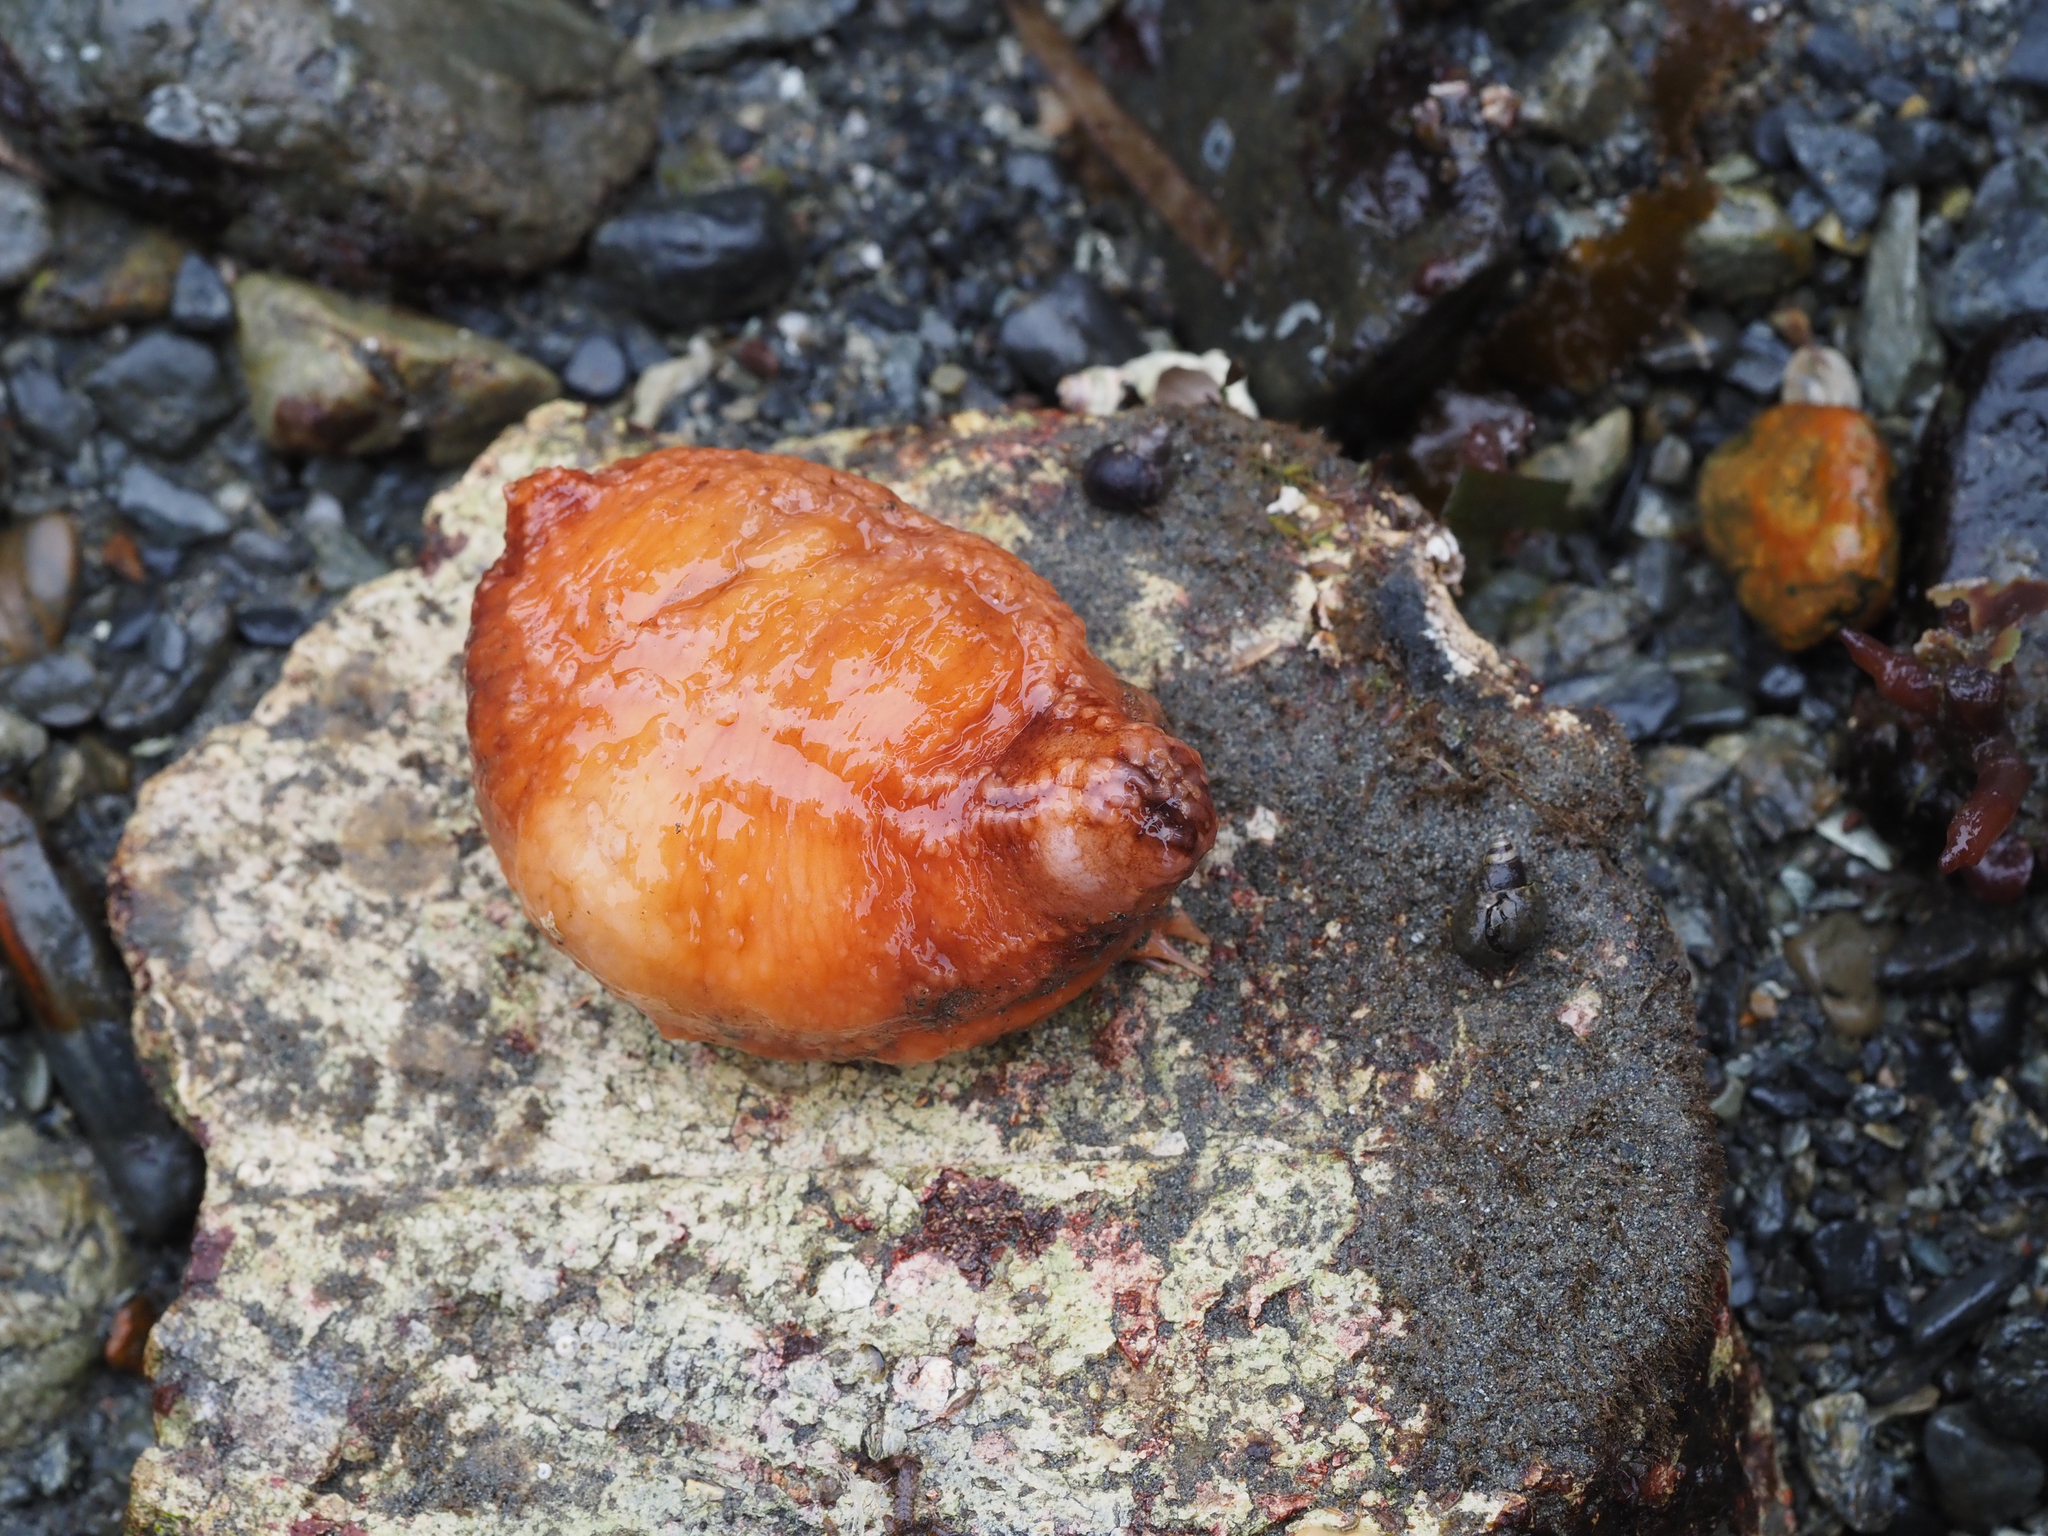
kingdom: Animalia
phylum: Echinodermata
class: Holothuroidea
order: Dendrochirotida
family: Cucumariidae
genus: Cucumaria
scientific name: Cucumaria miniata
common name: Orange sea cucumber
